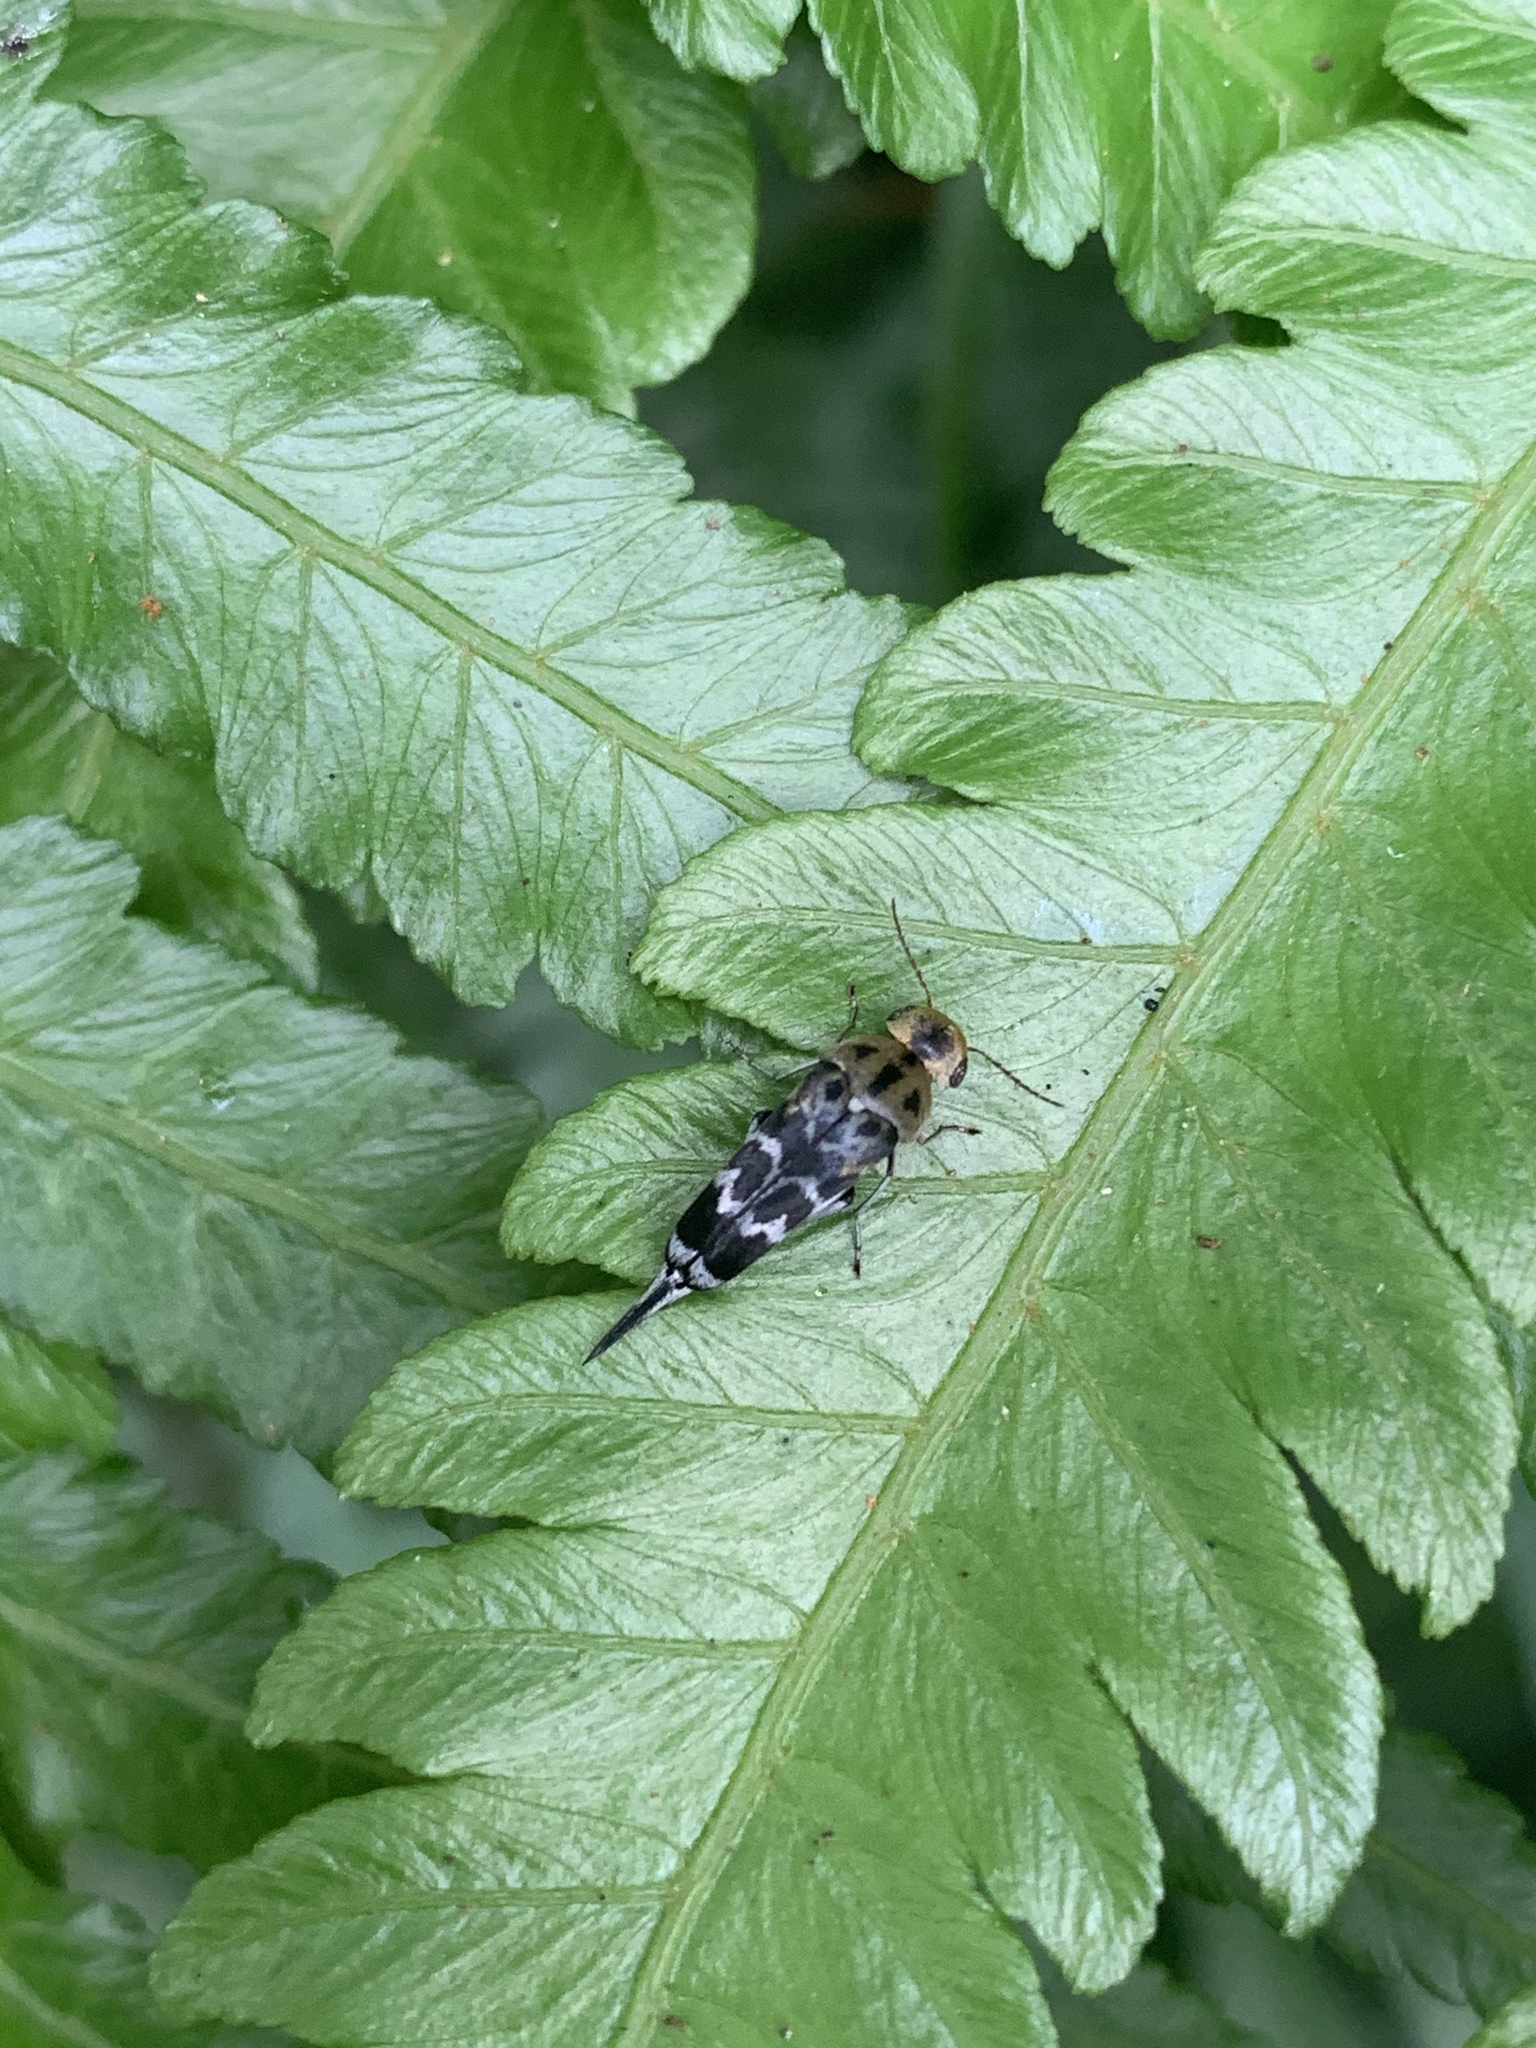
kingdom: Animalia
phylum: Arthropoda
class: Insecta
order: Coleoptera
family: Mordellidae
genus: Glipa
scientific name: Glipa
